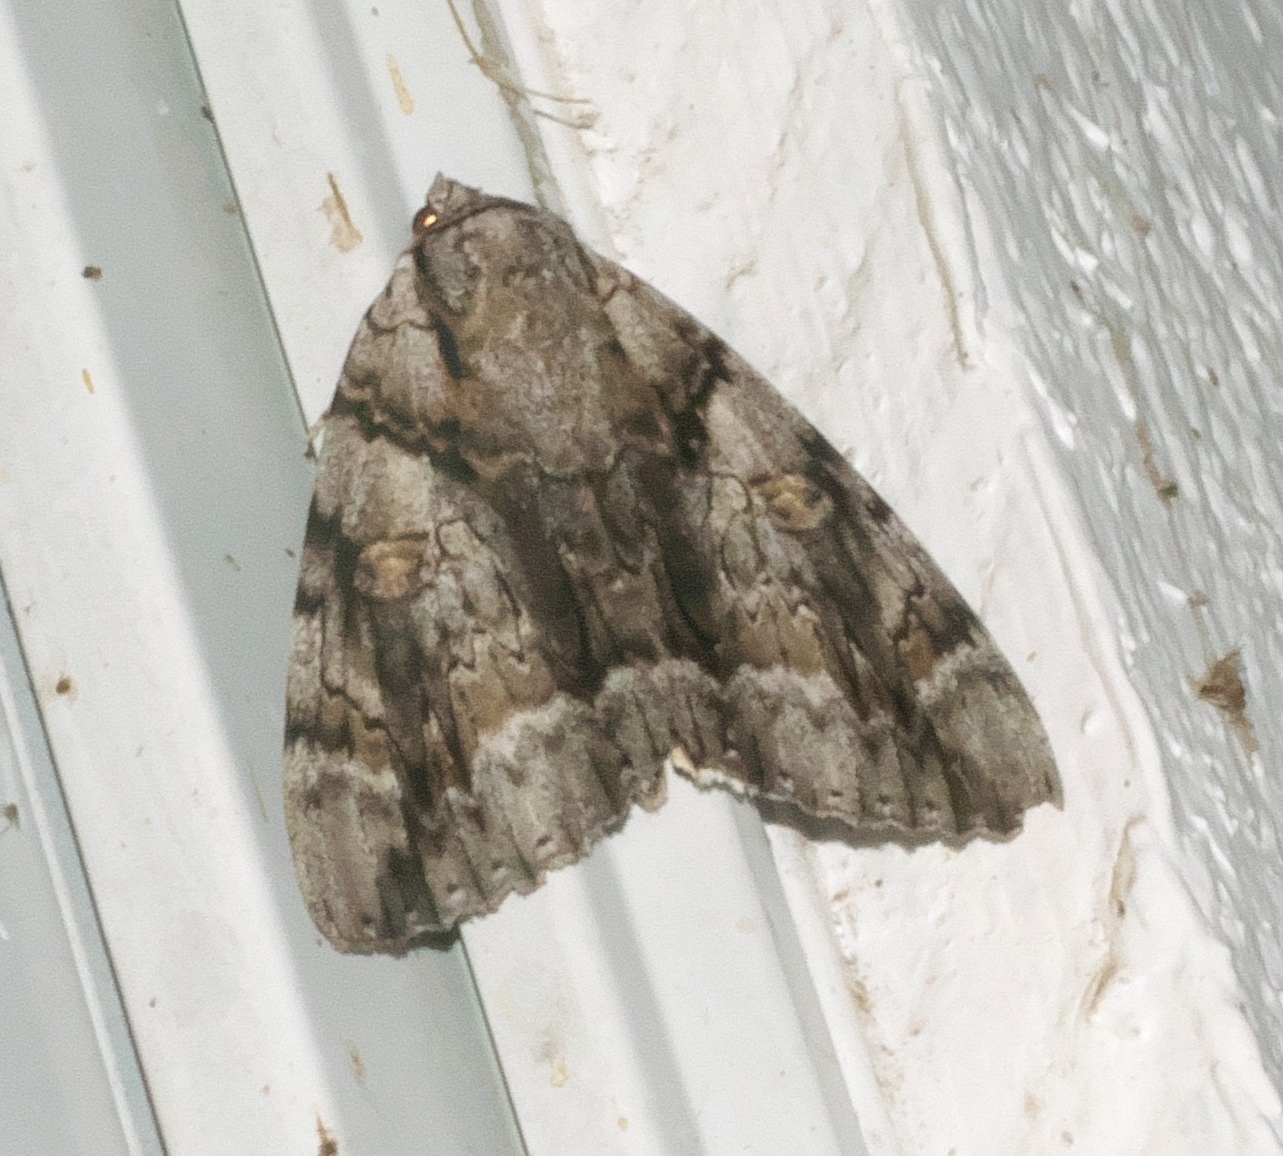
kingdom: Animalia
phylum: Arthropoda
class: Insecta
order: Lepidoptera
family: Erebidae
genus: Catocala
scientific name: Catocala vidua
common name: The widow
